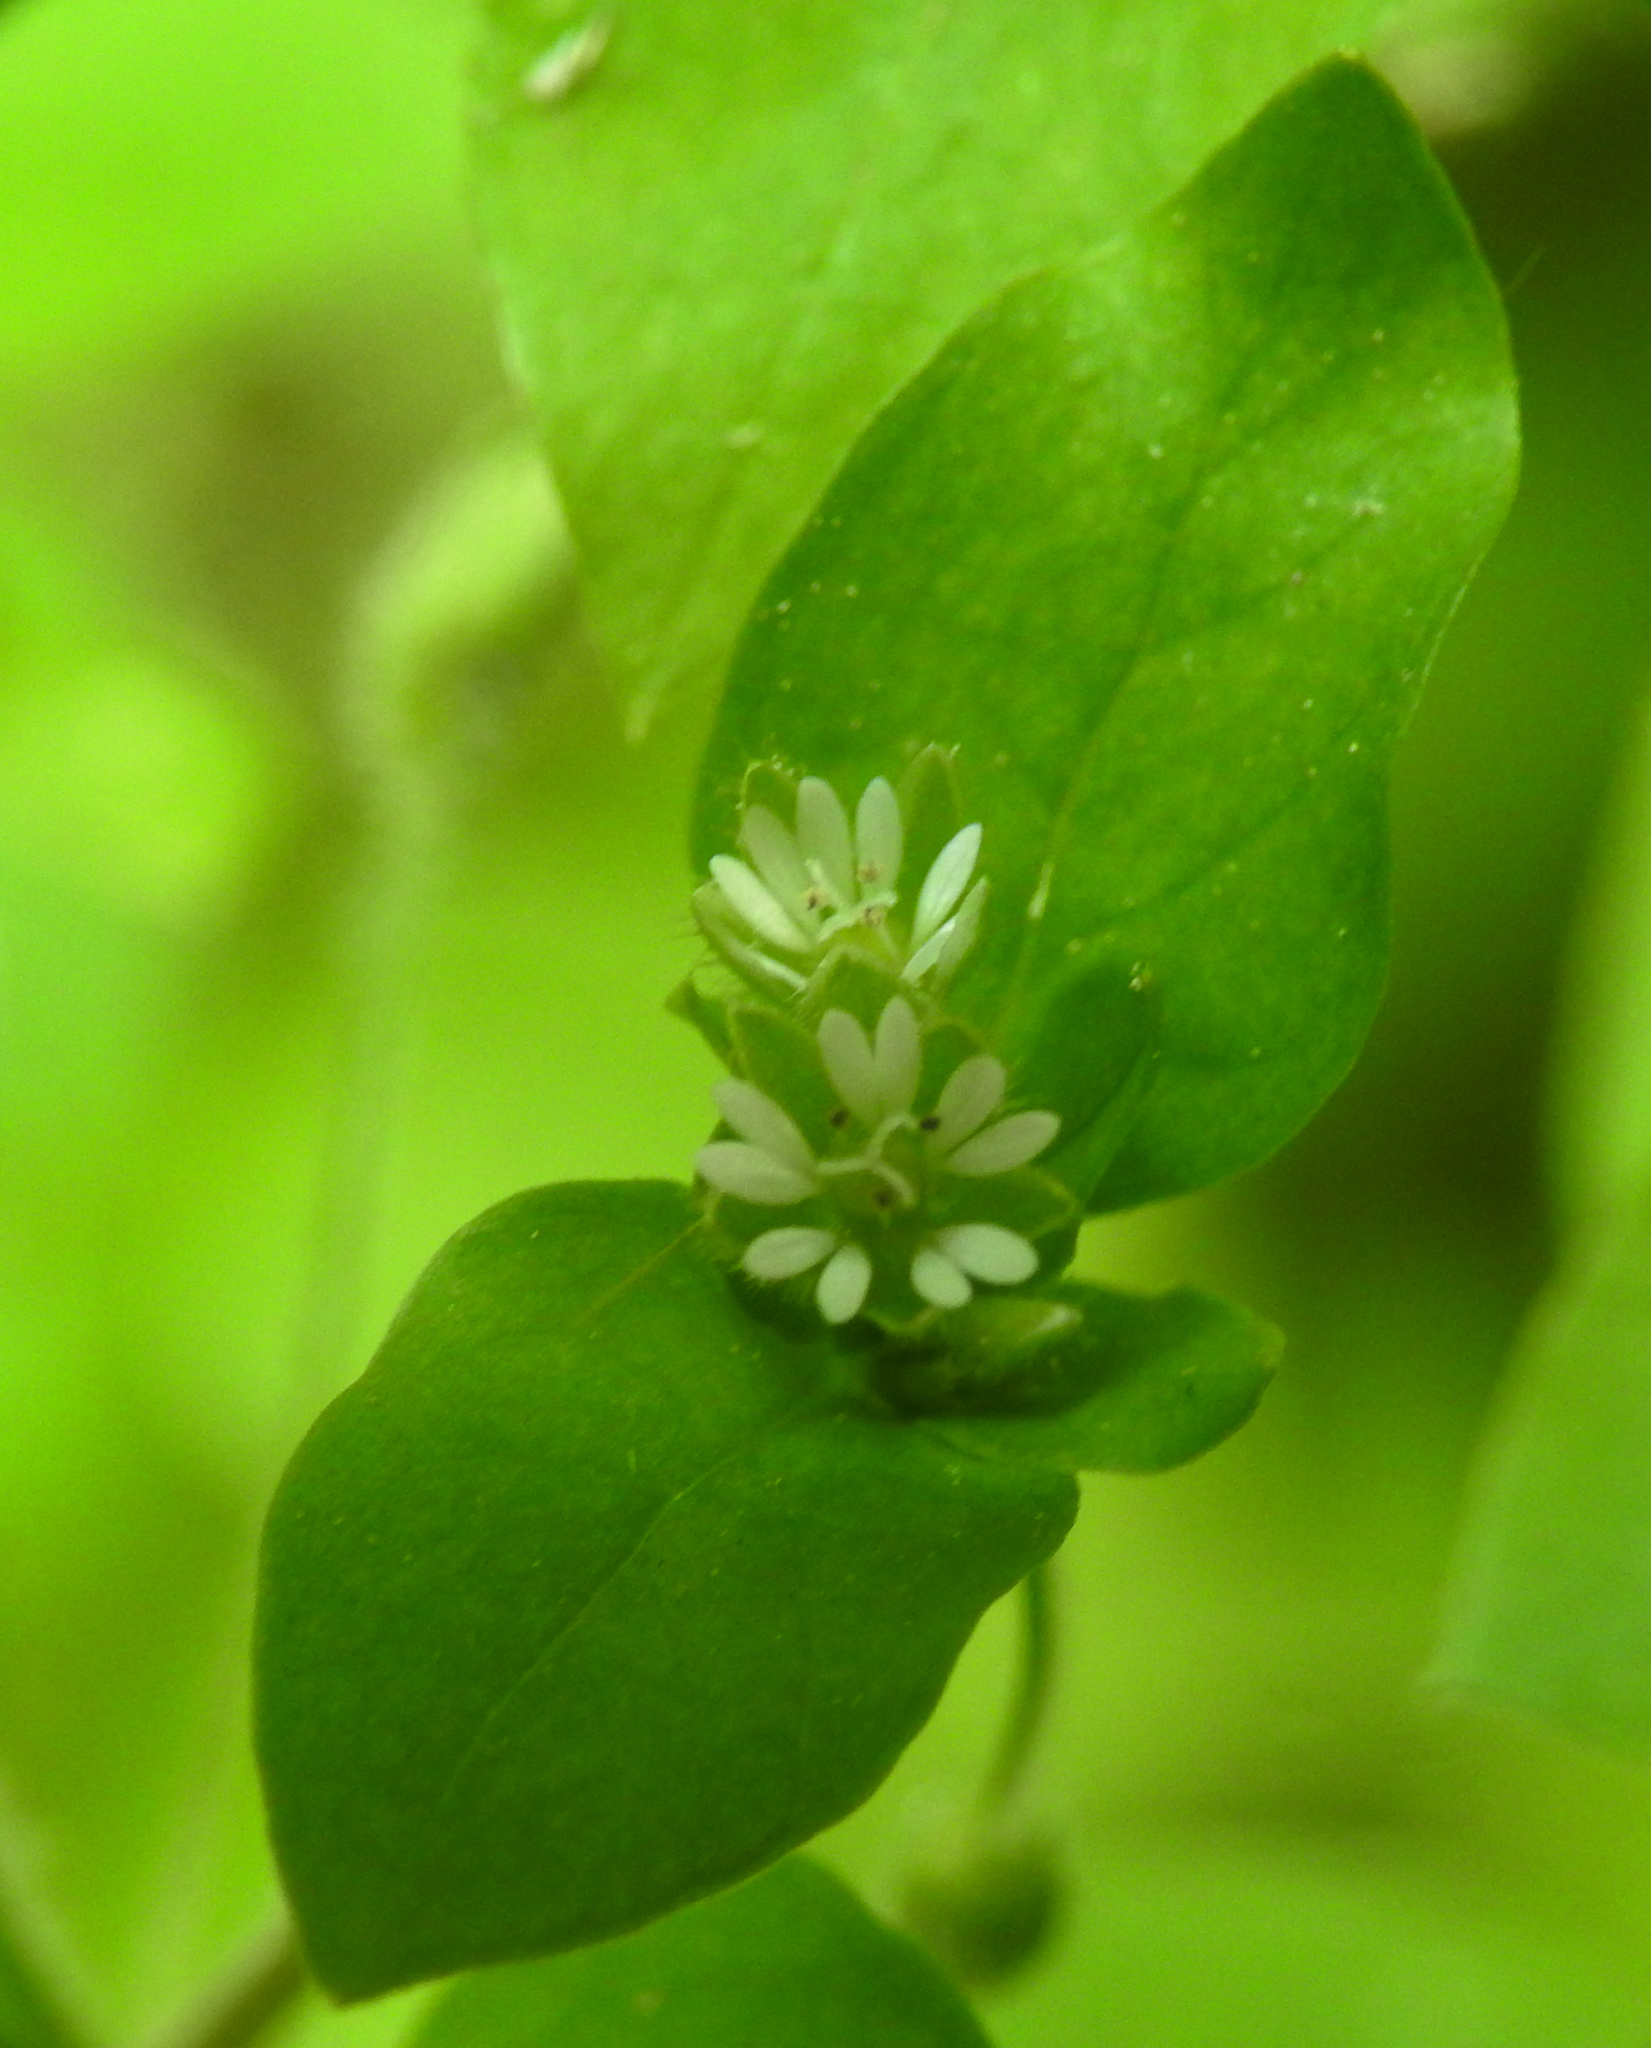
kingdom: Plantae
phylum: Tracheophyta
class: Magnoliopsida
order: Caryophyllales
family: Caryophyllaceae
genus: Stellaria
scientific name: Stellaria media
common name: Common chickweed
